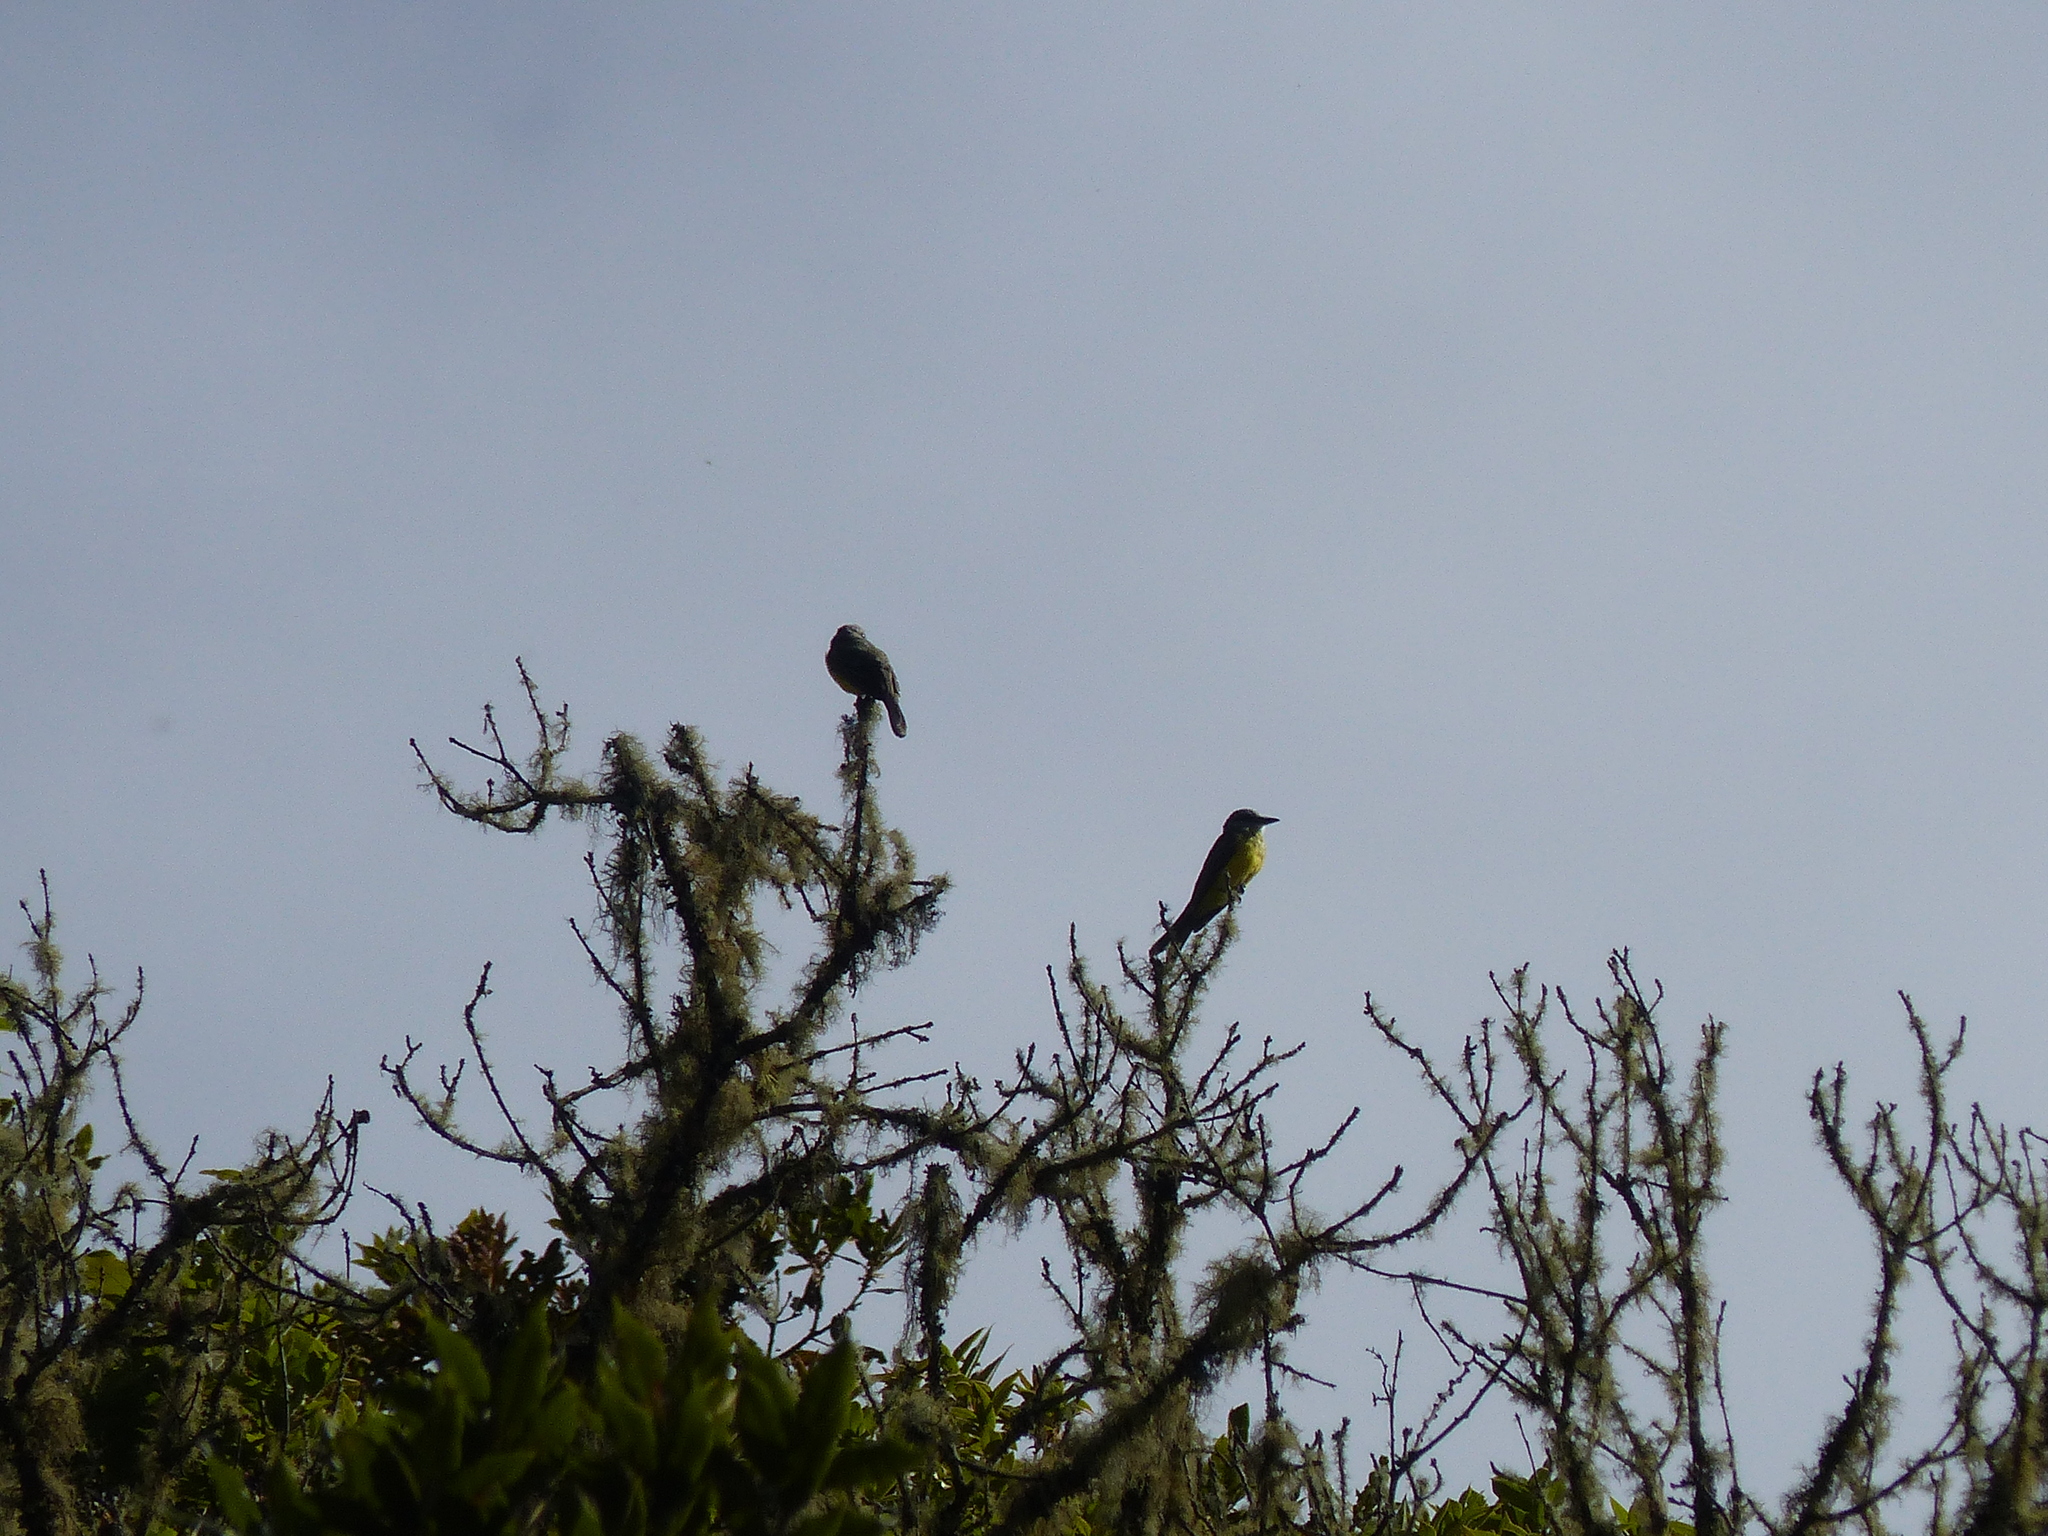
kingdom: Animalia
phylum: Chordata
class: Aves
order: Passeriformes
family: Tyrannidae
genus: Tyrannus
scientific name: Tyrannus melancholicus
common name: Tropical kingbird
